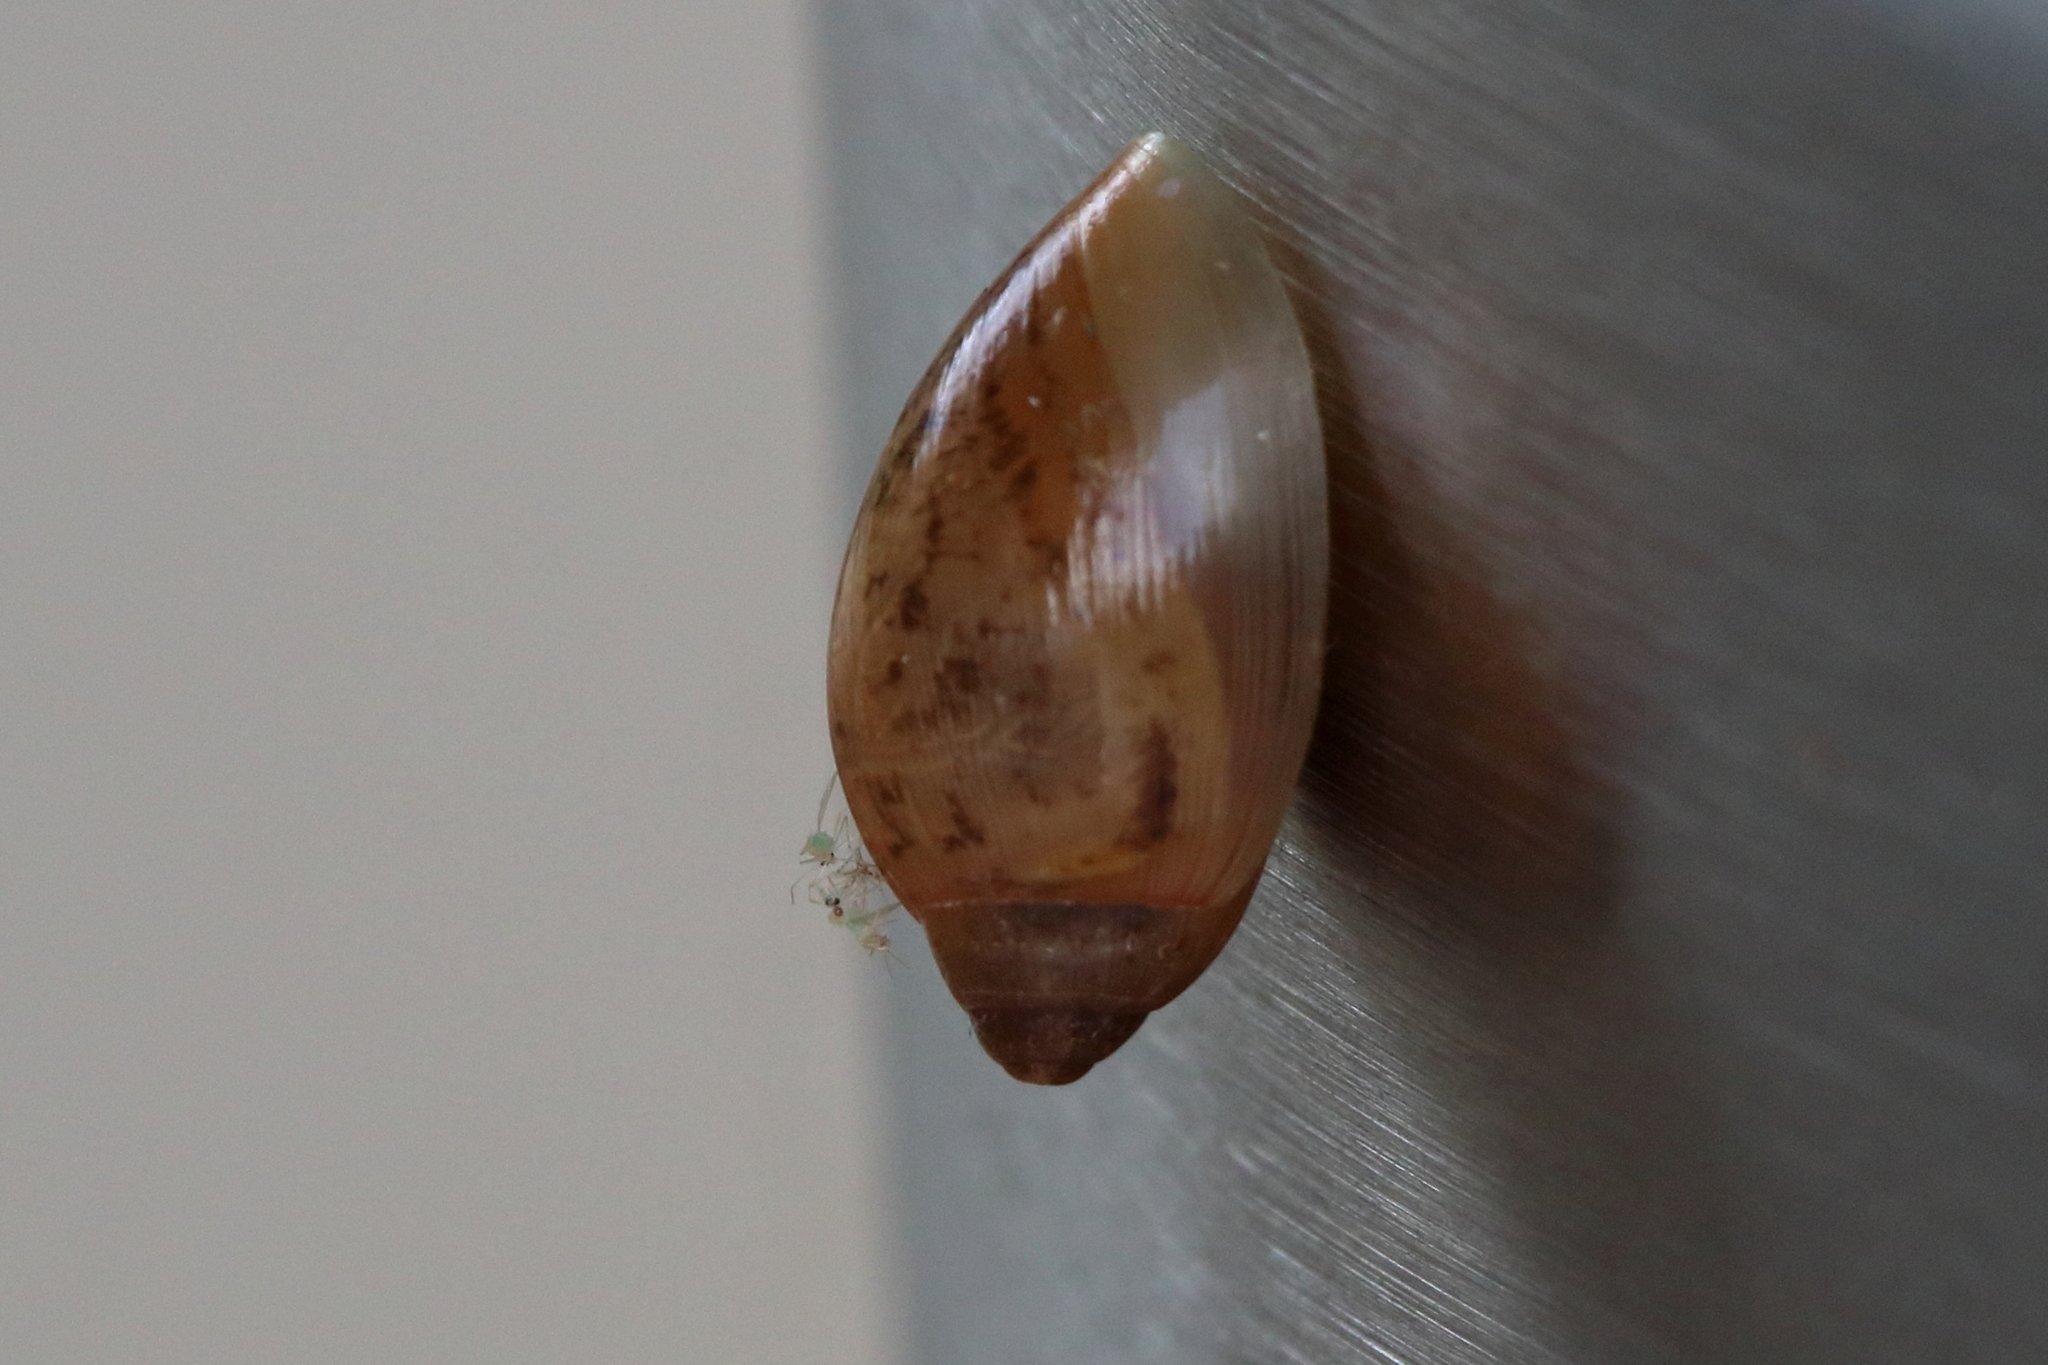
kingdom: Animalia
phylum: Mollusca
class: Gastropoda
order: Stylommatophora
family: Spiraxidae
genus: Euglandina
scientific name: Euglandina rosea
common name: Rosy wolfsnail
